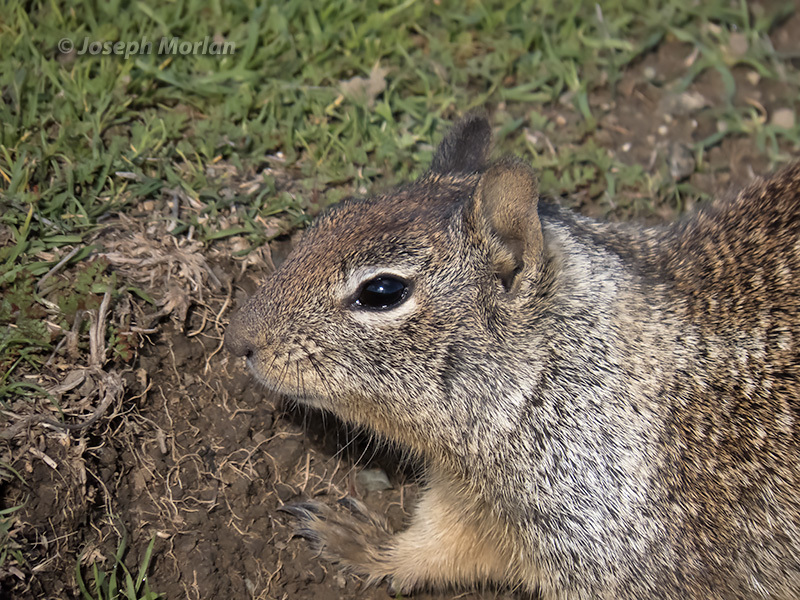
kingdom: Animalia
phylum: Chordata
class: Mammalia
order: Rodentia
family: Sciuridae
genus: Otospermophilus
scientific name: Otospermophilus beecheyi
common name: California ground squirrel
